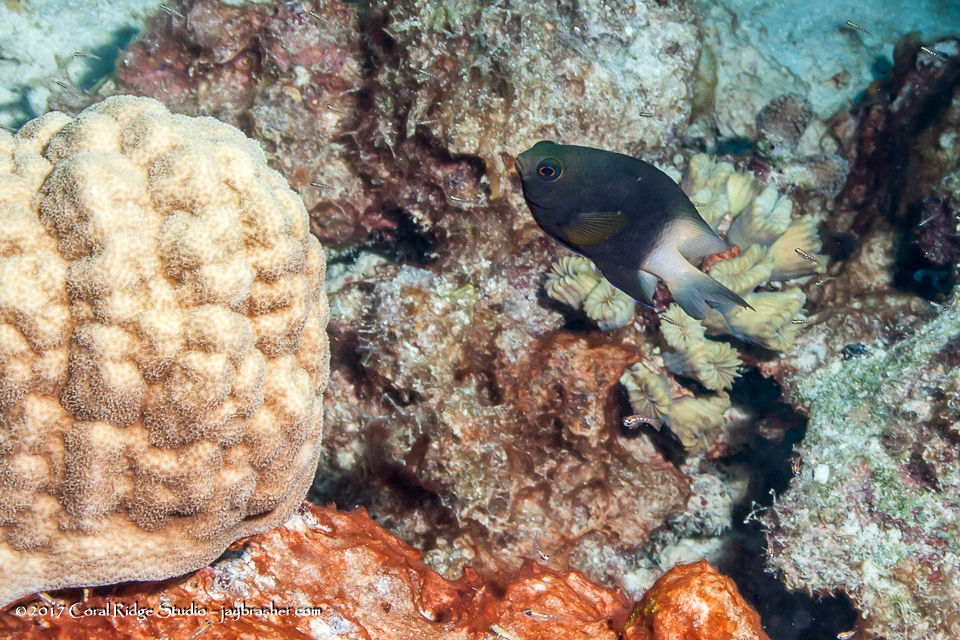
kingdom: Animalia
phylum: Chordata
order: Perciformes
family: Pomacentridae
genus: Stegastes
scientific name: Stegastes partitus
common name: Bicolor damselfish
